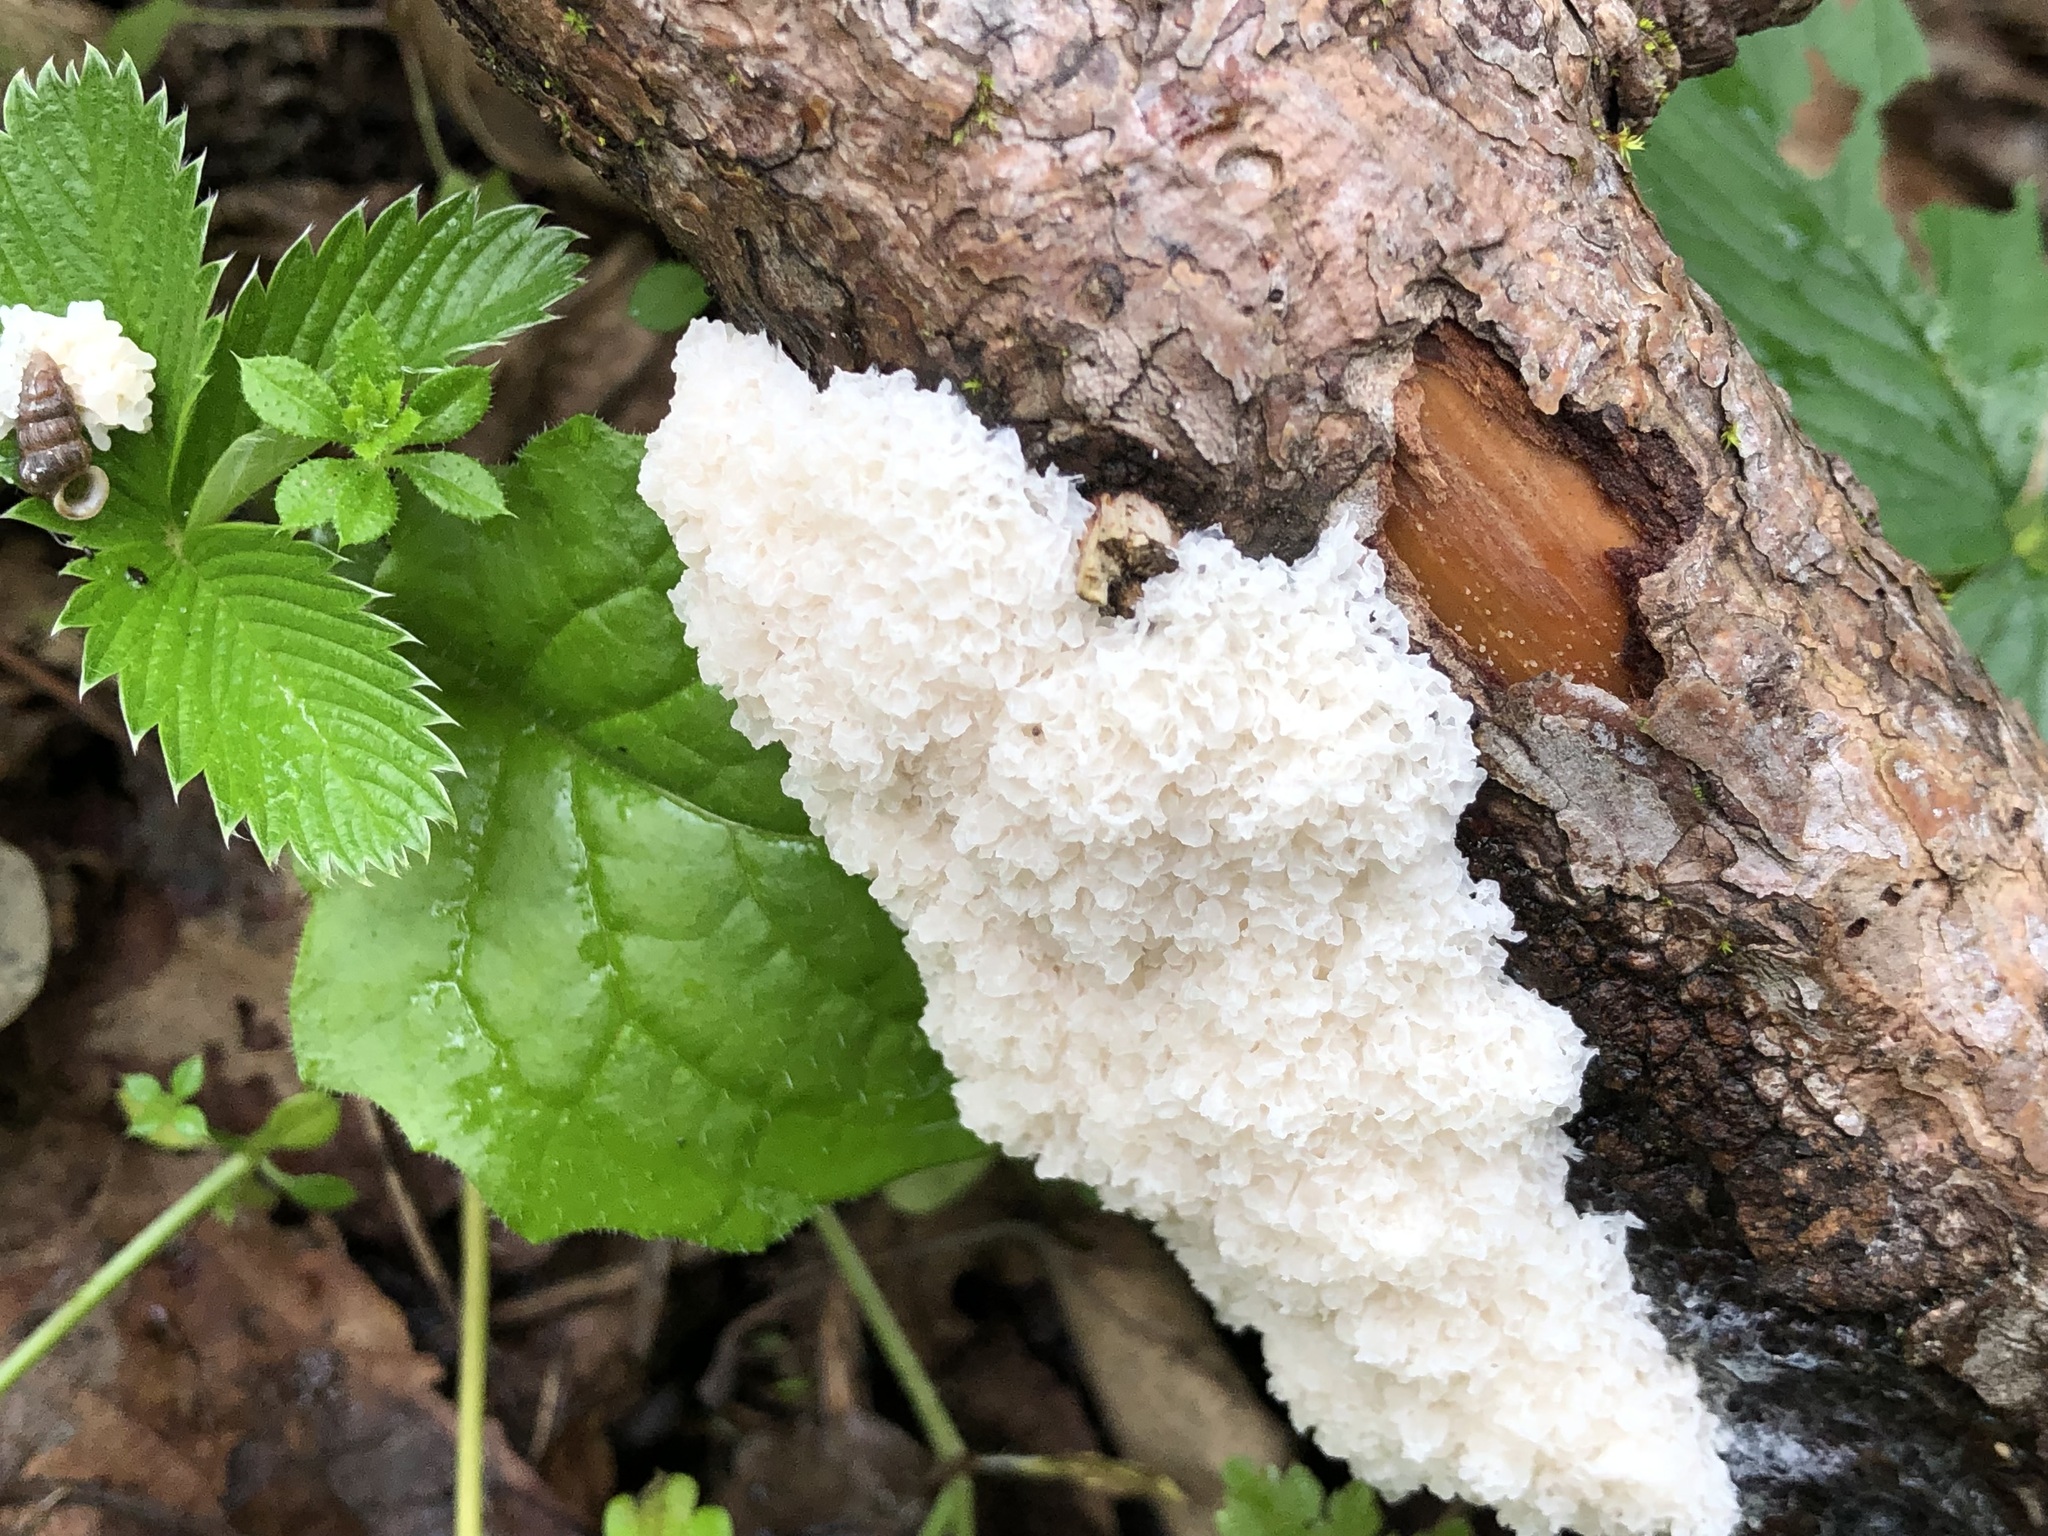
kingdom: Protozoa
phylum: Mycetozoa
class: Myxomycetes
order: Physarales
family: Physaraceae
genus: Didymium
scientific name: Didymium
